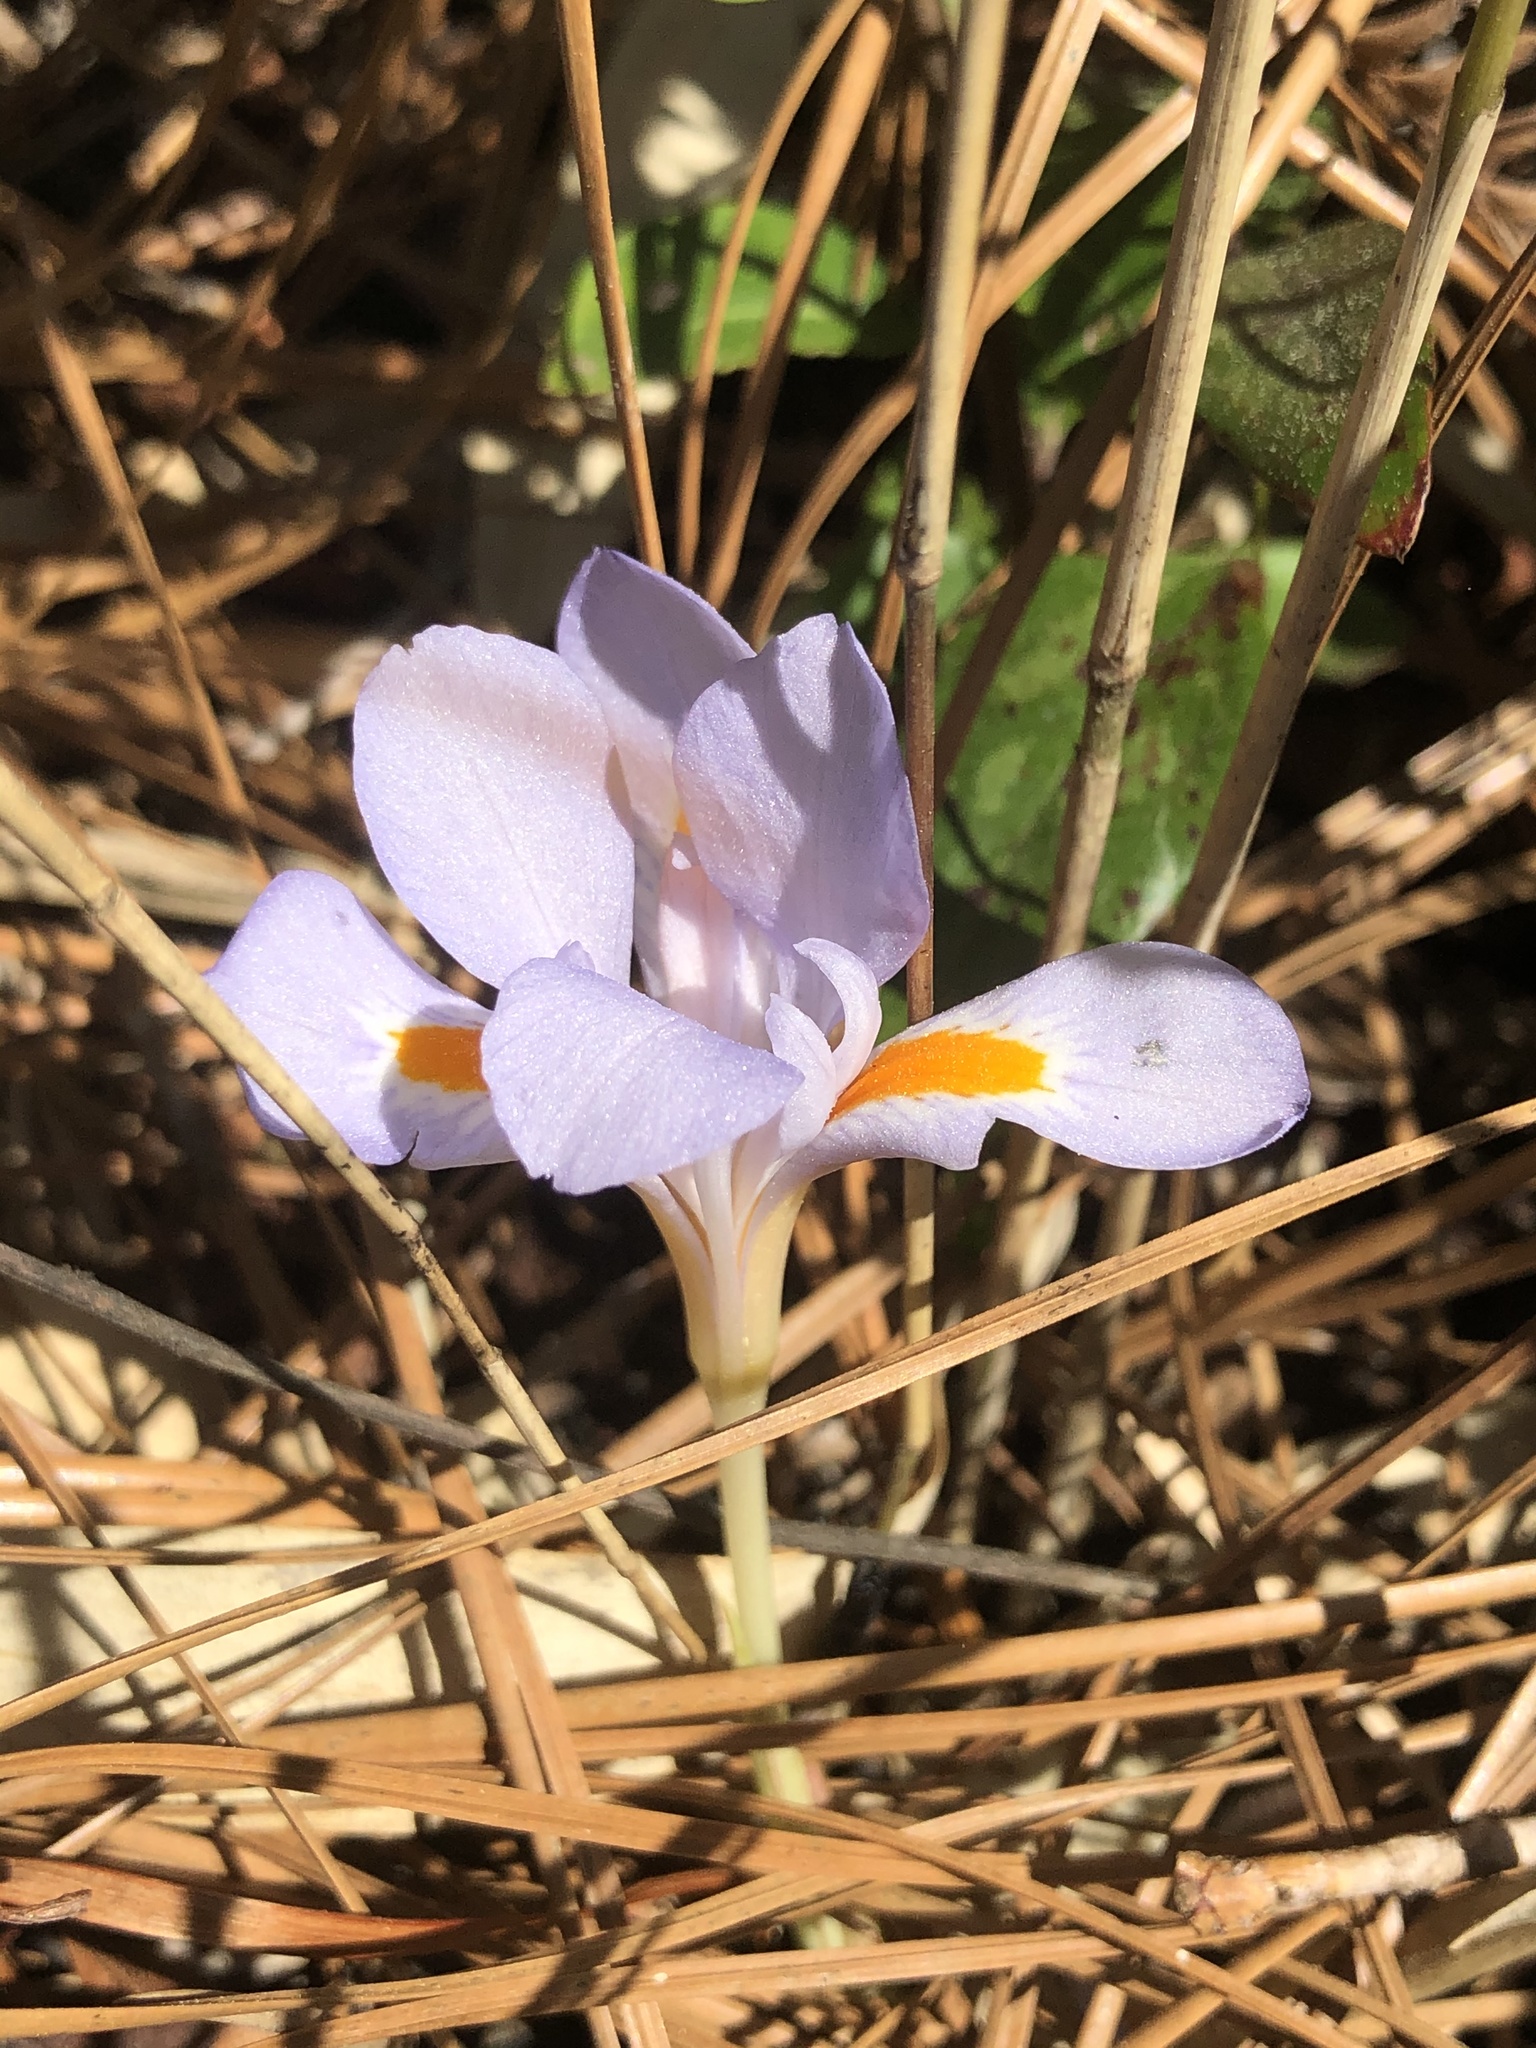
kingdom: Plantae
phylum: Tracheophyta
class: Liliopsida
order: Asparagales
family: Iridaceae
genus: Iris
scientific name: Iris verna
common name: Dwarf iris
